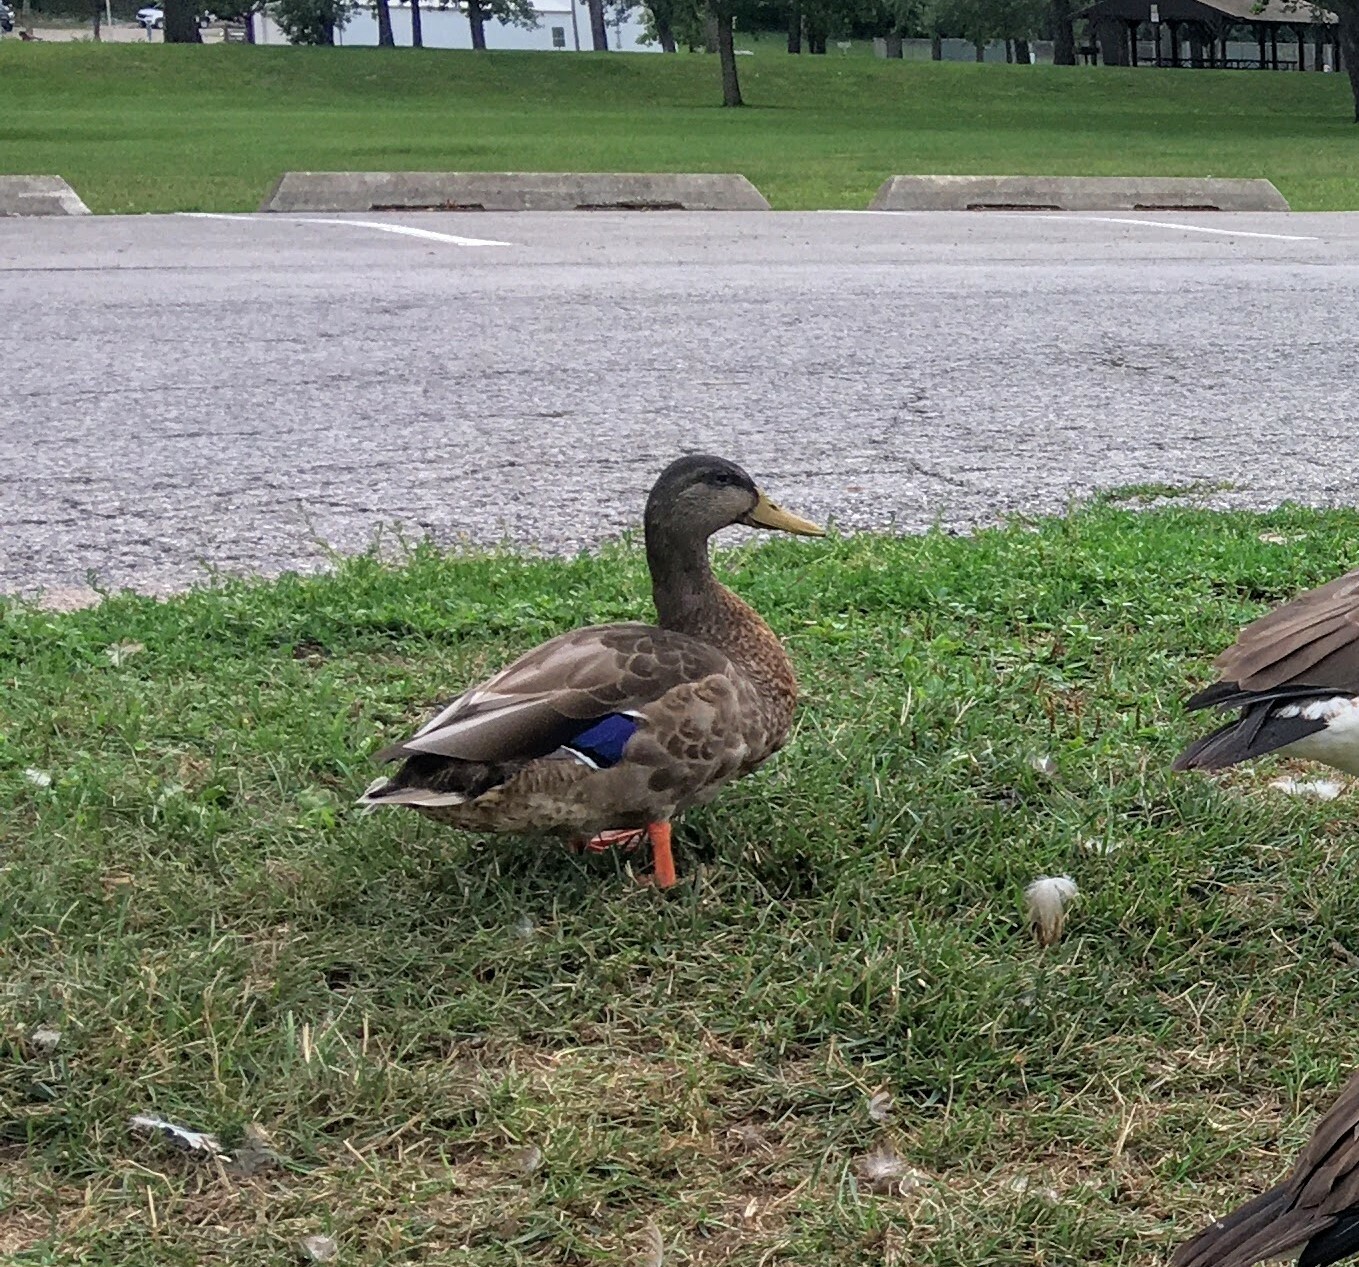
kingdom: Animalia
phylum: Chordata
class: Aves
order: Anseriformes
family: Anatidae
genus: Anas
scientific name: Anas platyrhynchos
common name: Mallard
